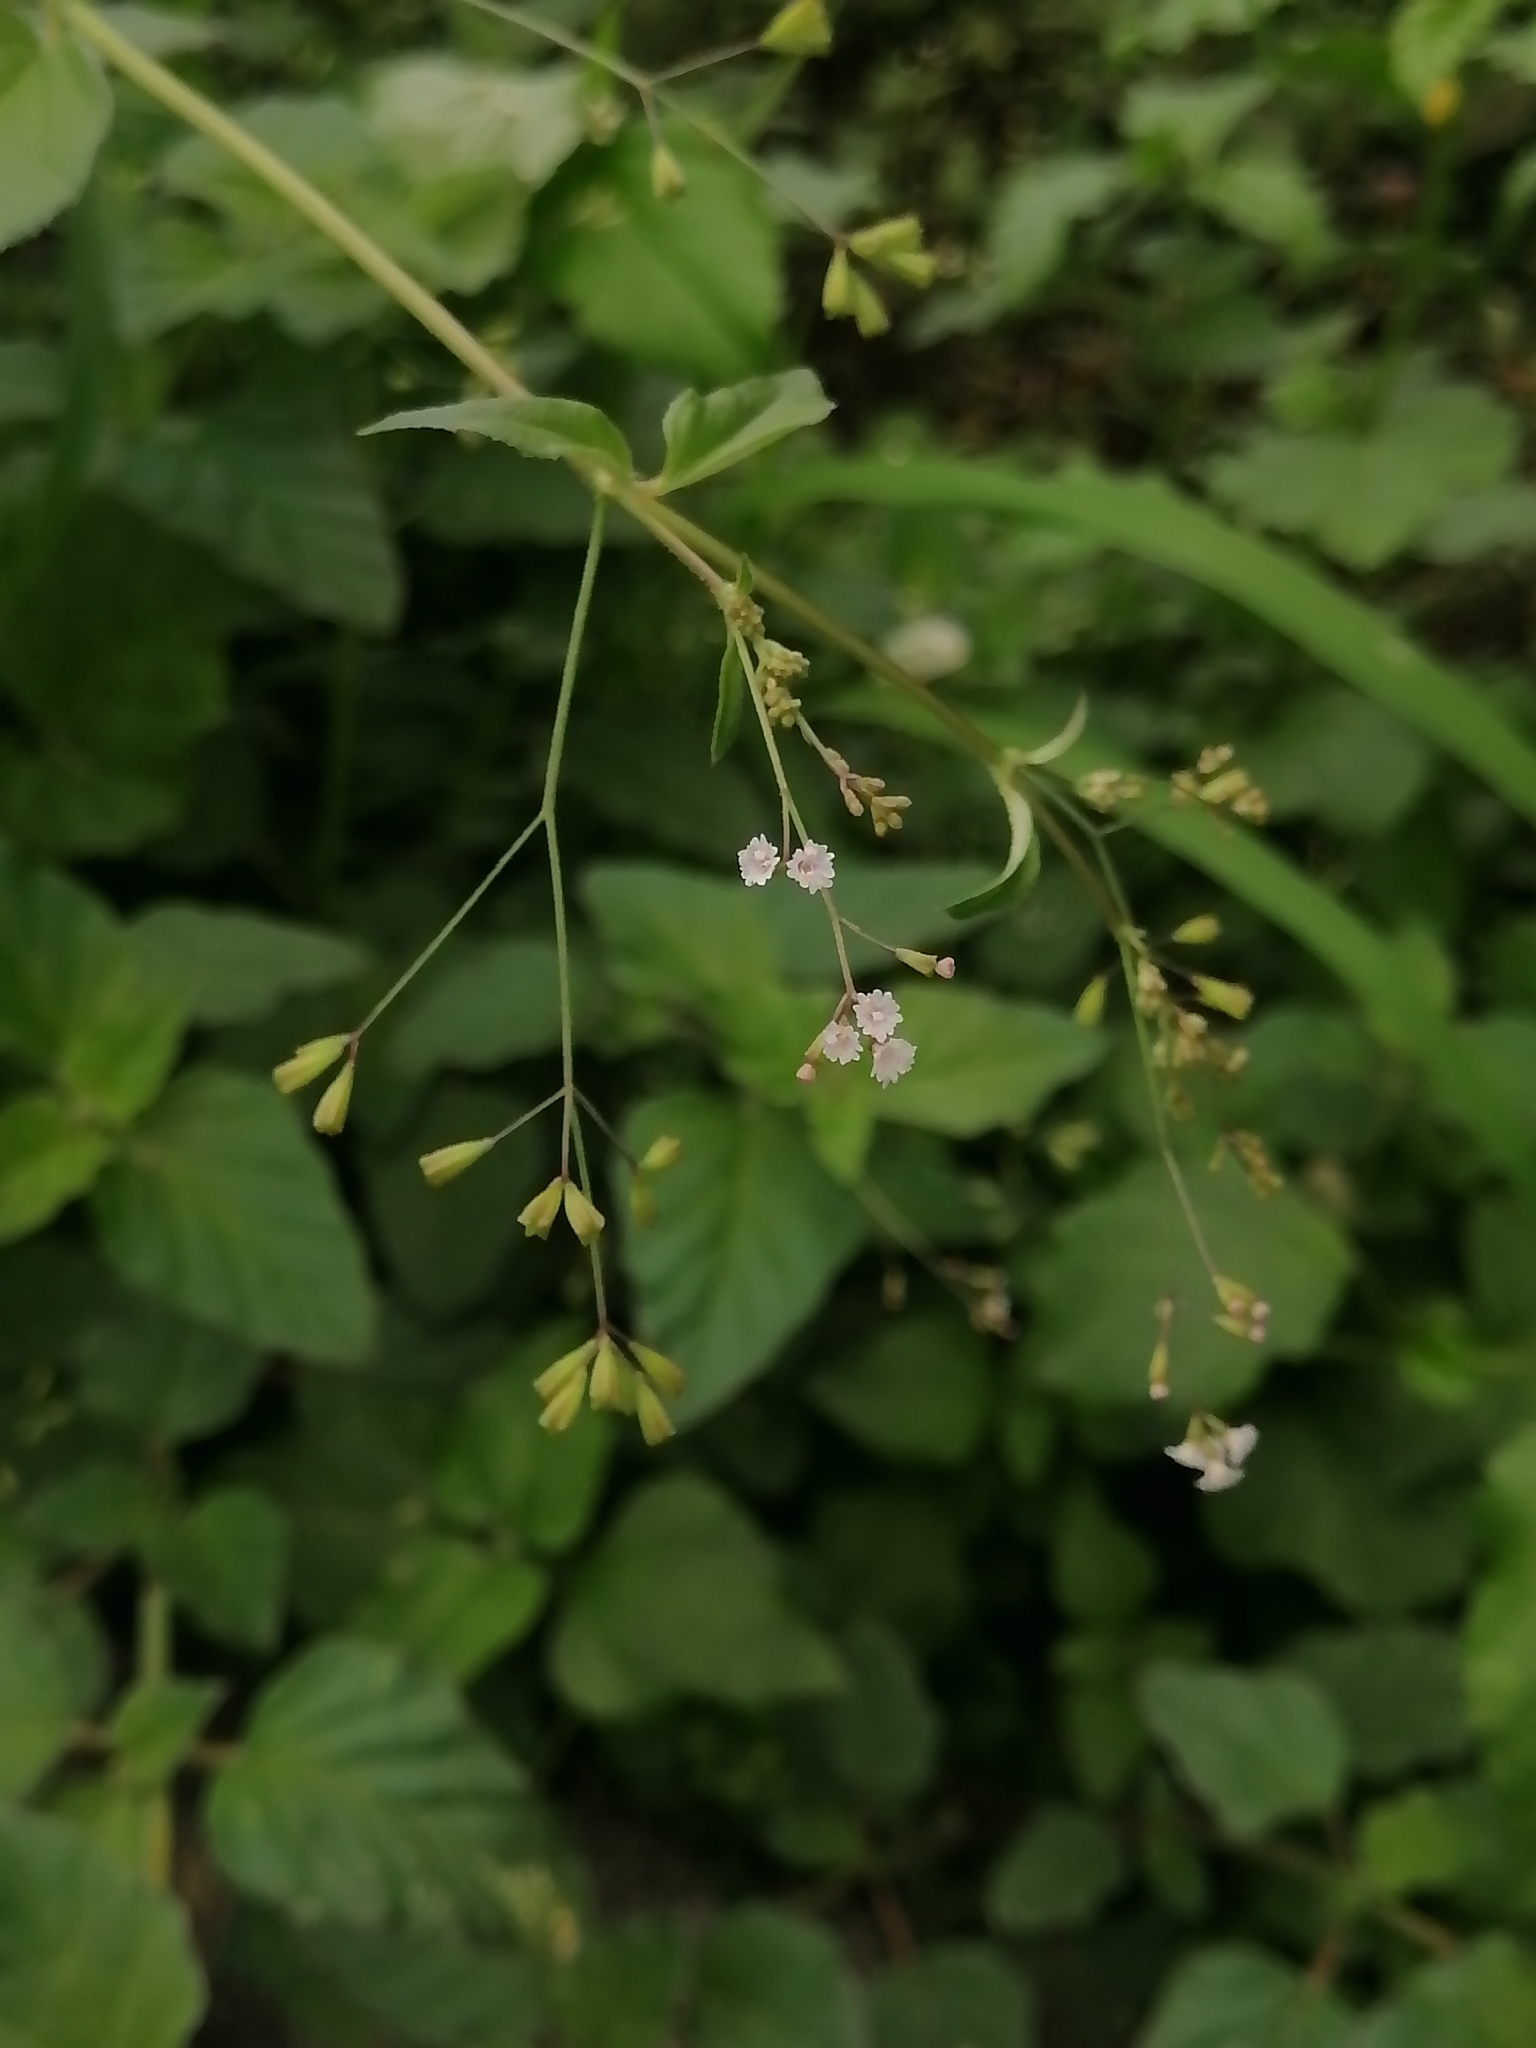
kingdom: Plantae
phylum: Tracheophyta
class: Magnoliopsida
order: Caryophyllales
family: Nyctaginaceae
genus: Boerhavia
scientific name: Boerhavia erecta
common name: Erect spiderling
